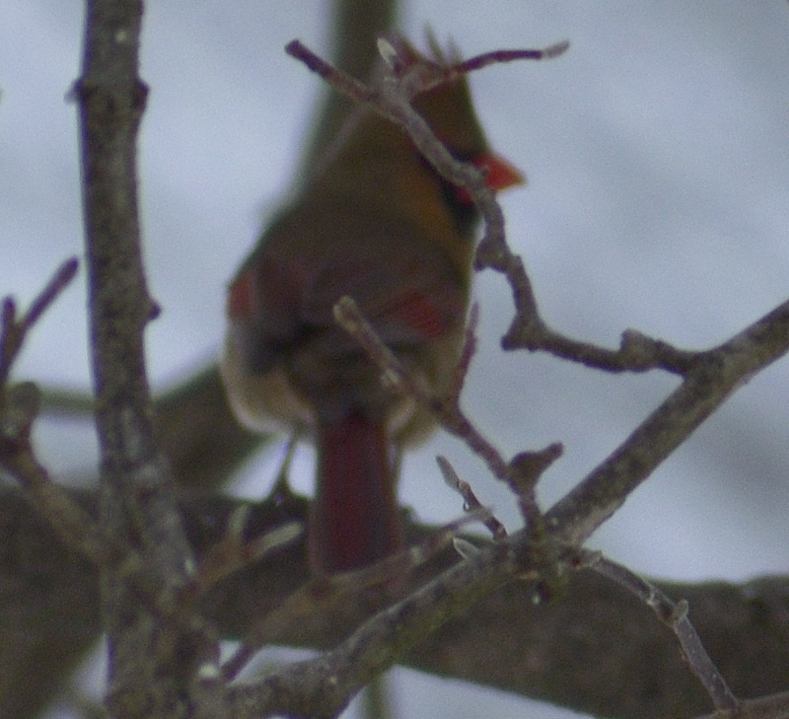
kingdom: Animalia
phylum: Chordata
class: Aves
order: Passeriformes
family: Cardinalidae
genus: Cardinalis
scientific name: Cardinalis cardinalis
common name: Northern cardinal
